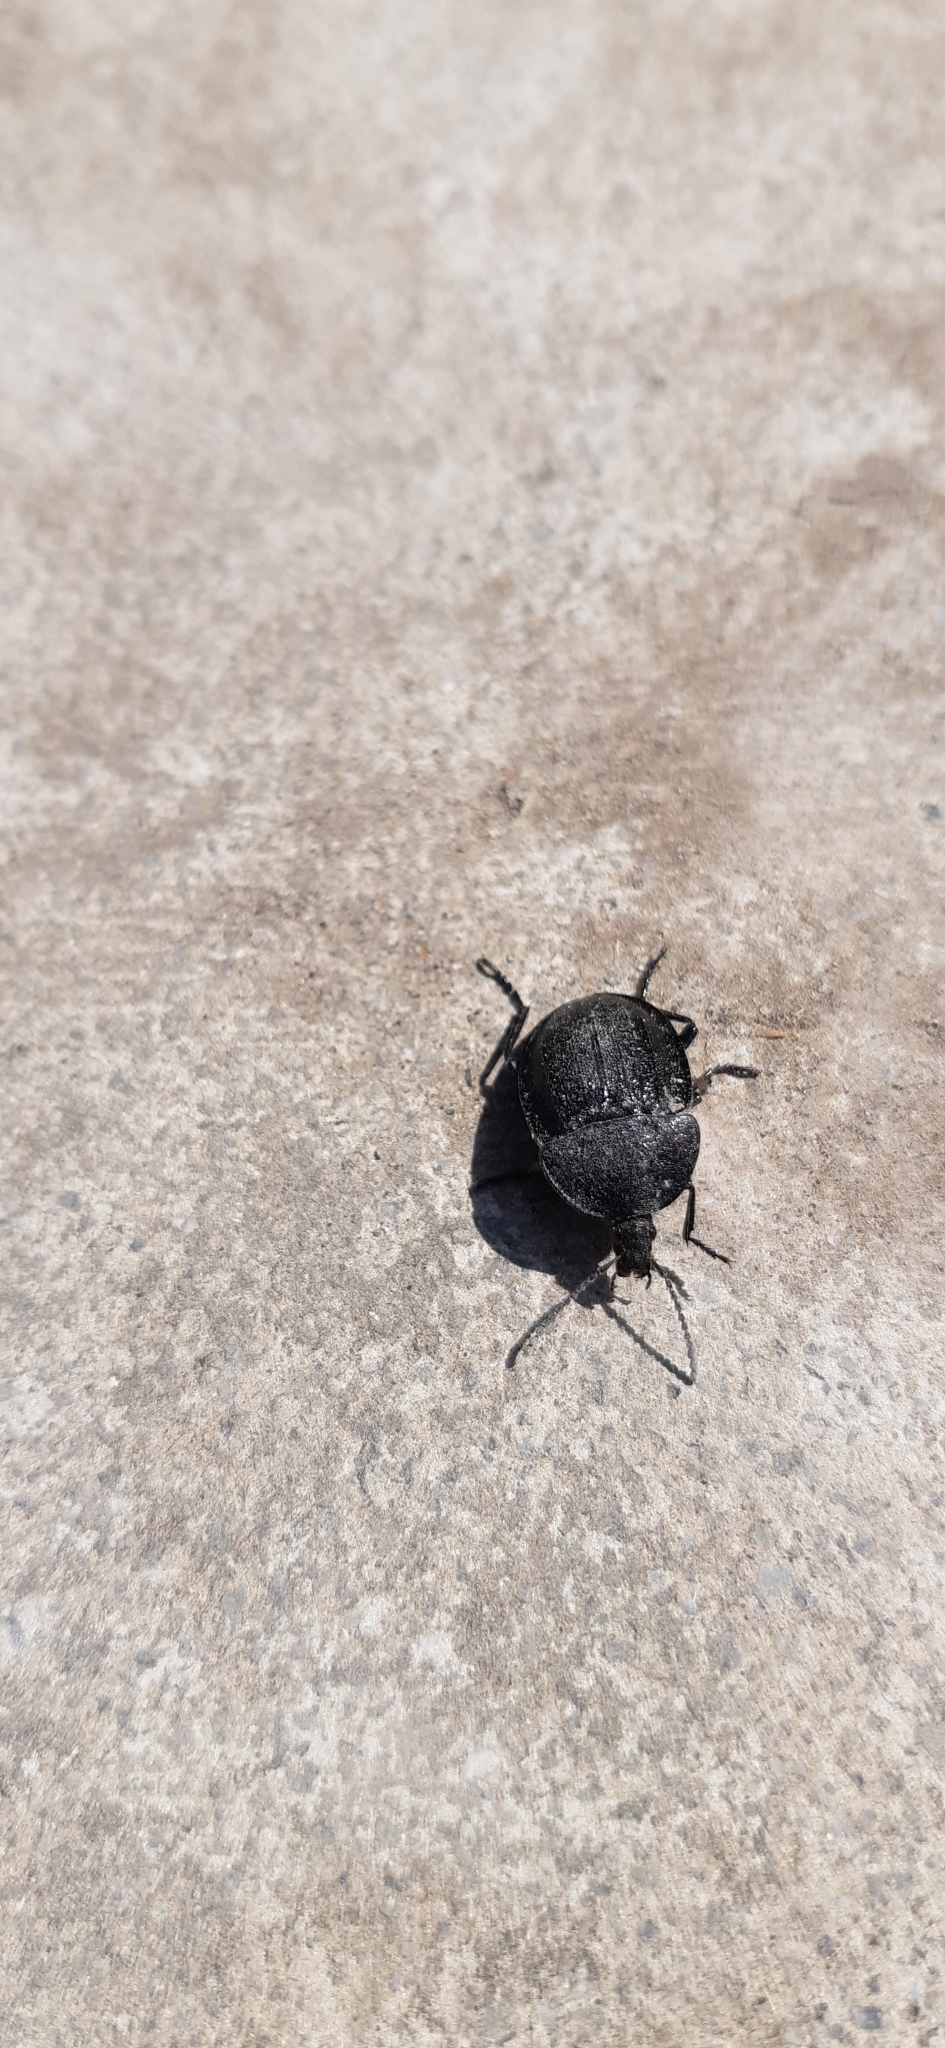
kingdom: Animalia
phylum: Arthropoda
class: Insecta
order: Coleoptera
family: Staphylinidae
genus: Silpha
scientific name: Silpha atrata
